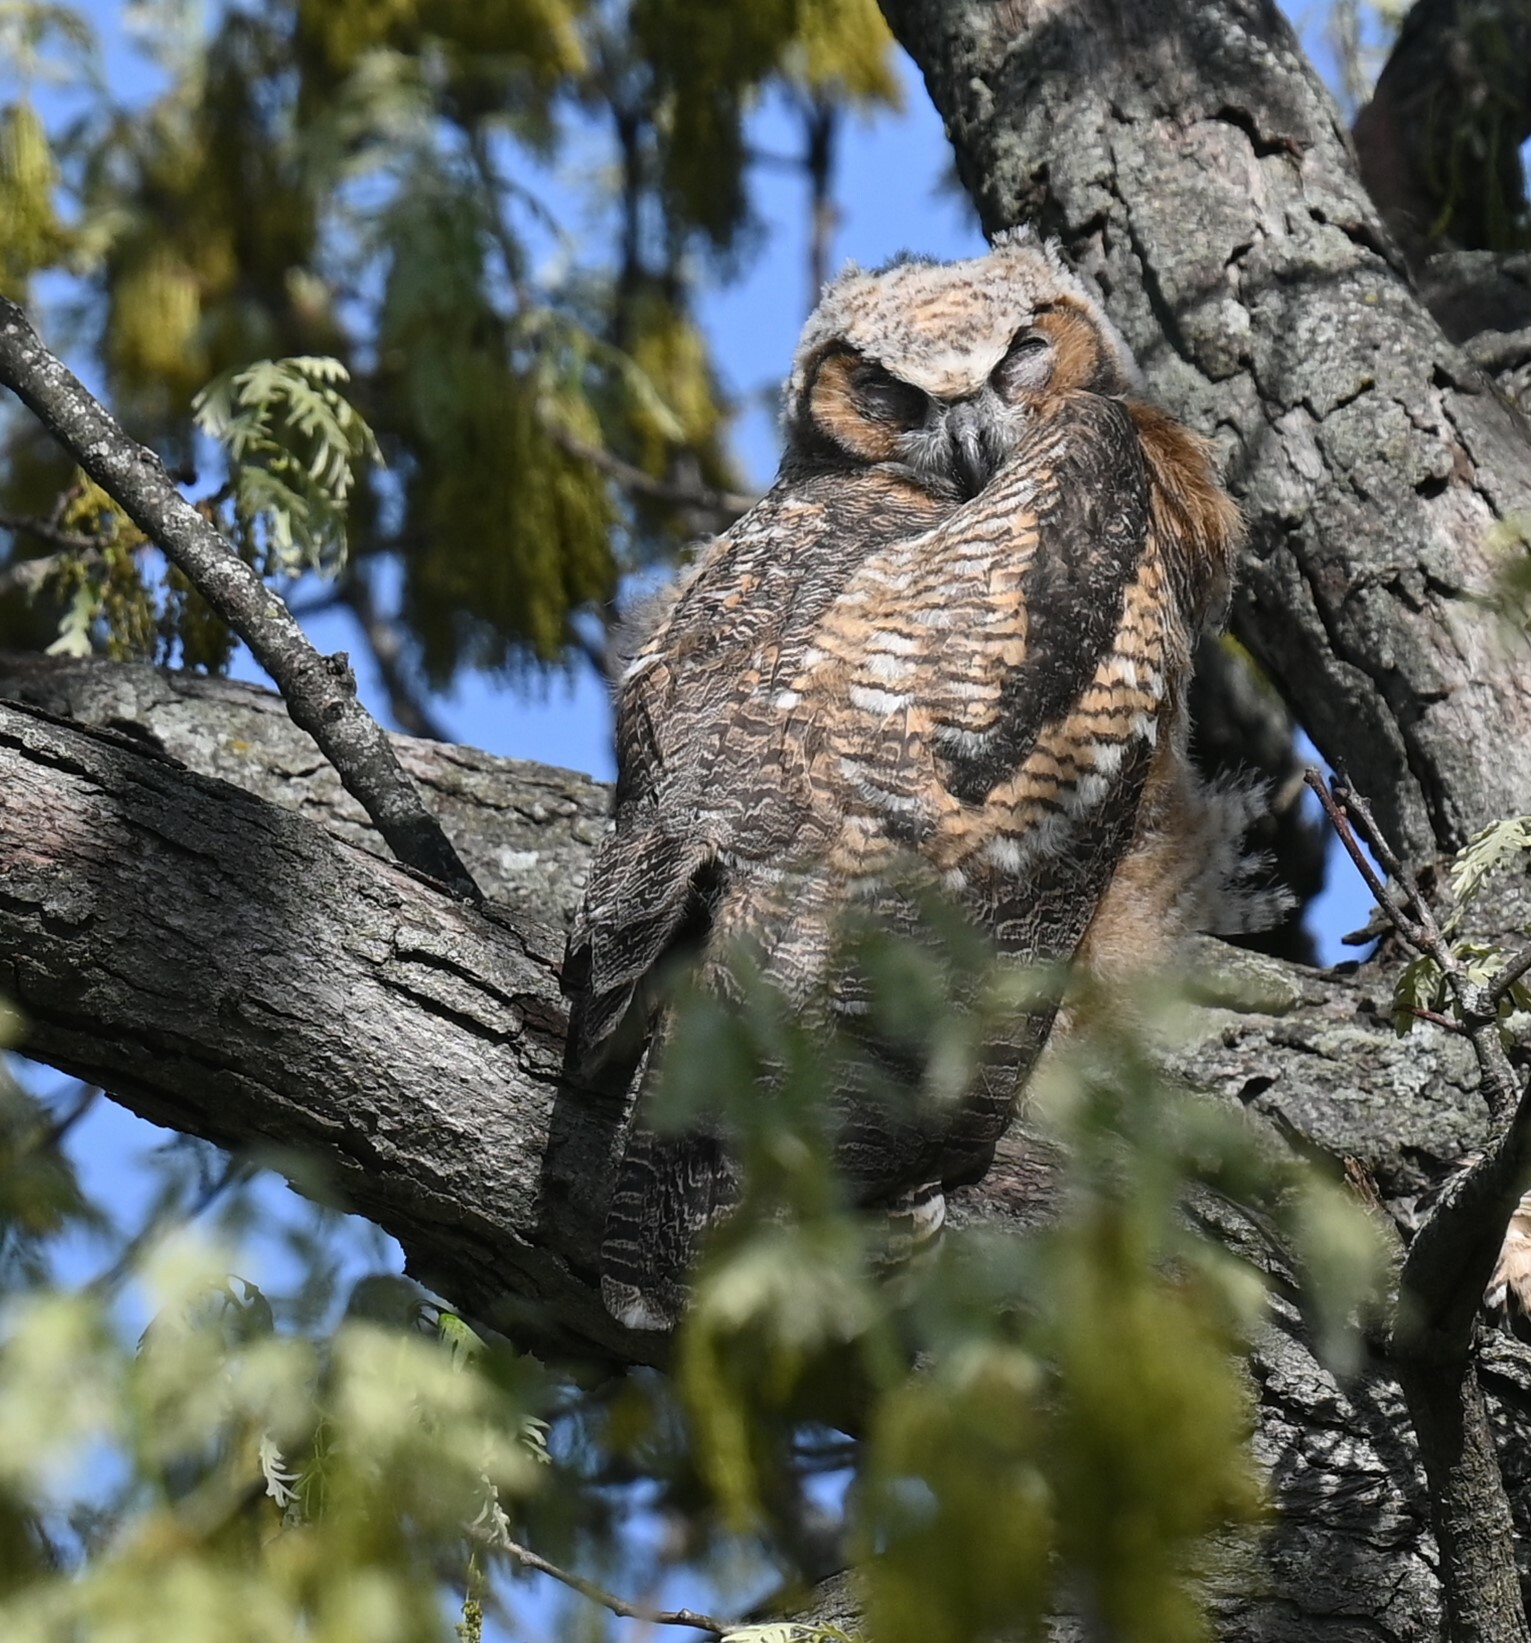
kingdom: Animalia
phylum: Chordata
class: Aves
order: Strigiformes
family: Strigidae
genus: Bubo
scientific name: Bubo virginianus
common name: Great horned owl
